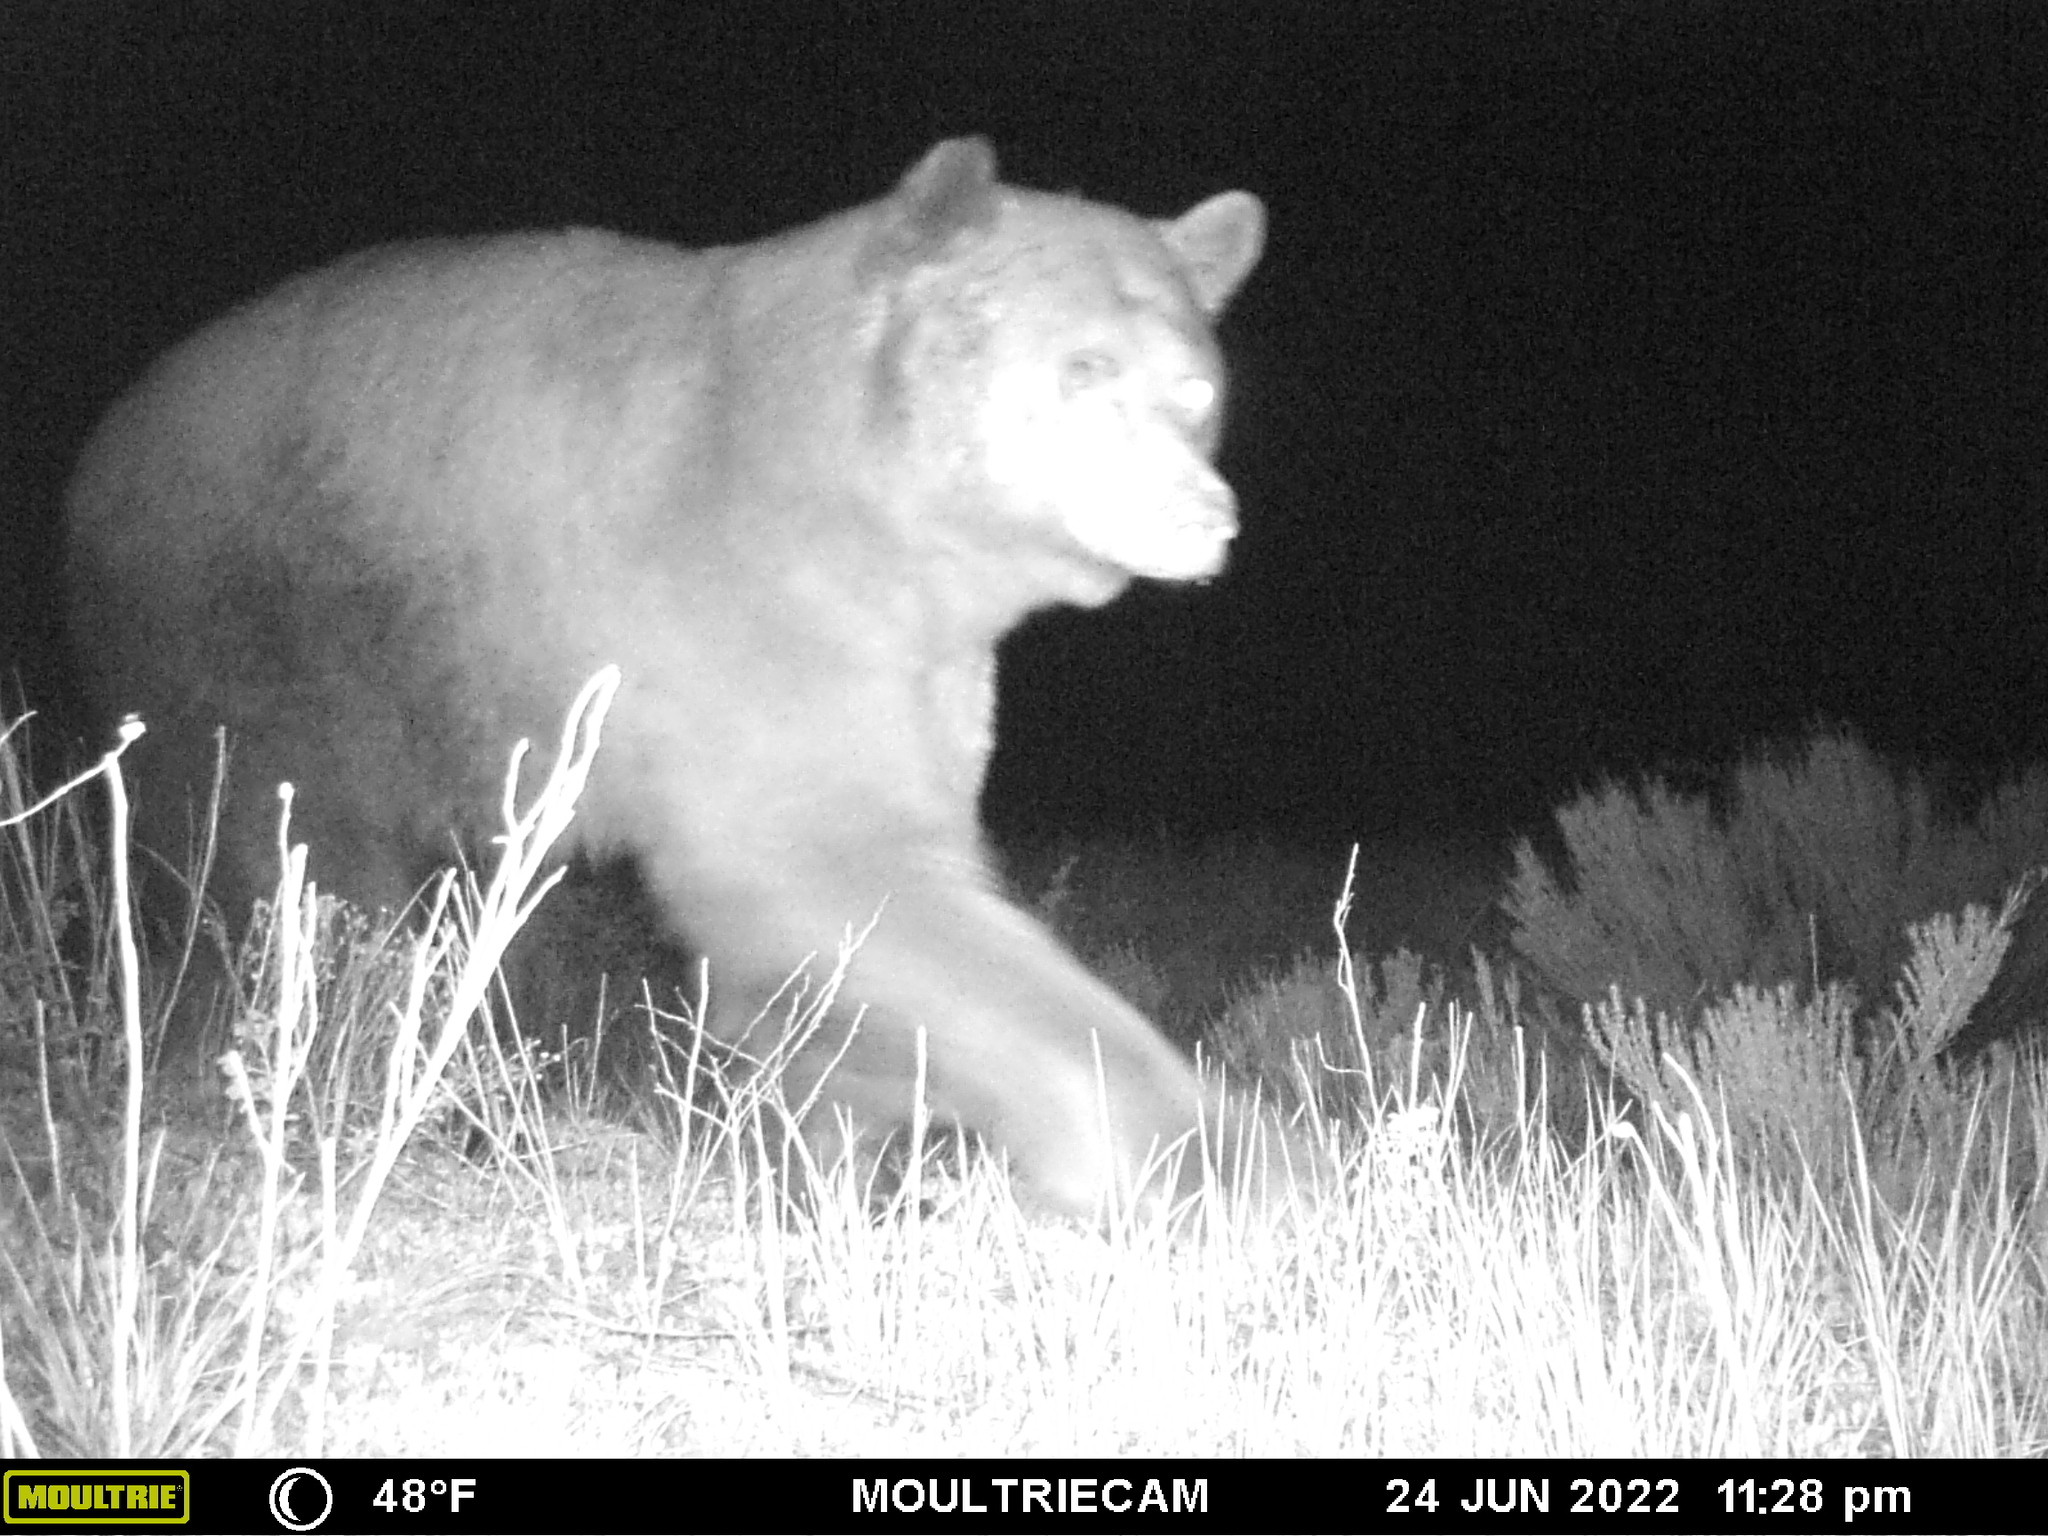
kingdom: Animalia
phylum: Chordata
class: Mammalia
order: Carnivora
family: Ursidae
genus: Ursus
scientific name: Ursus americanus
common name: American black bear
